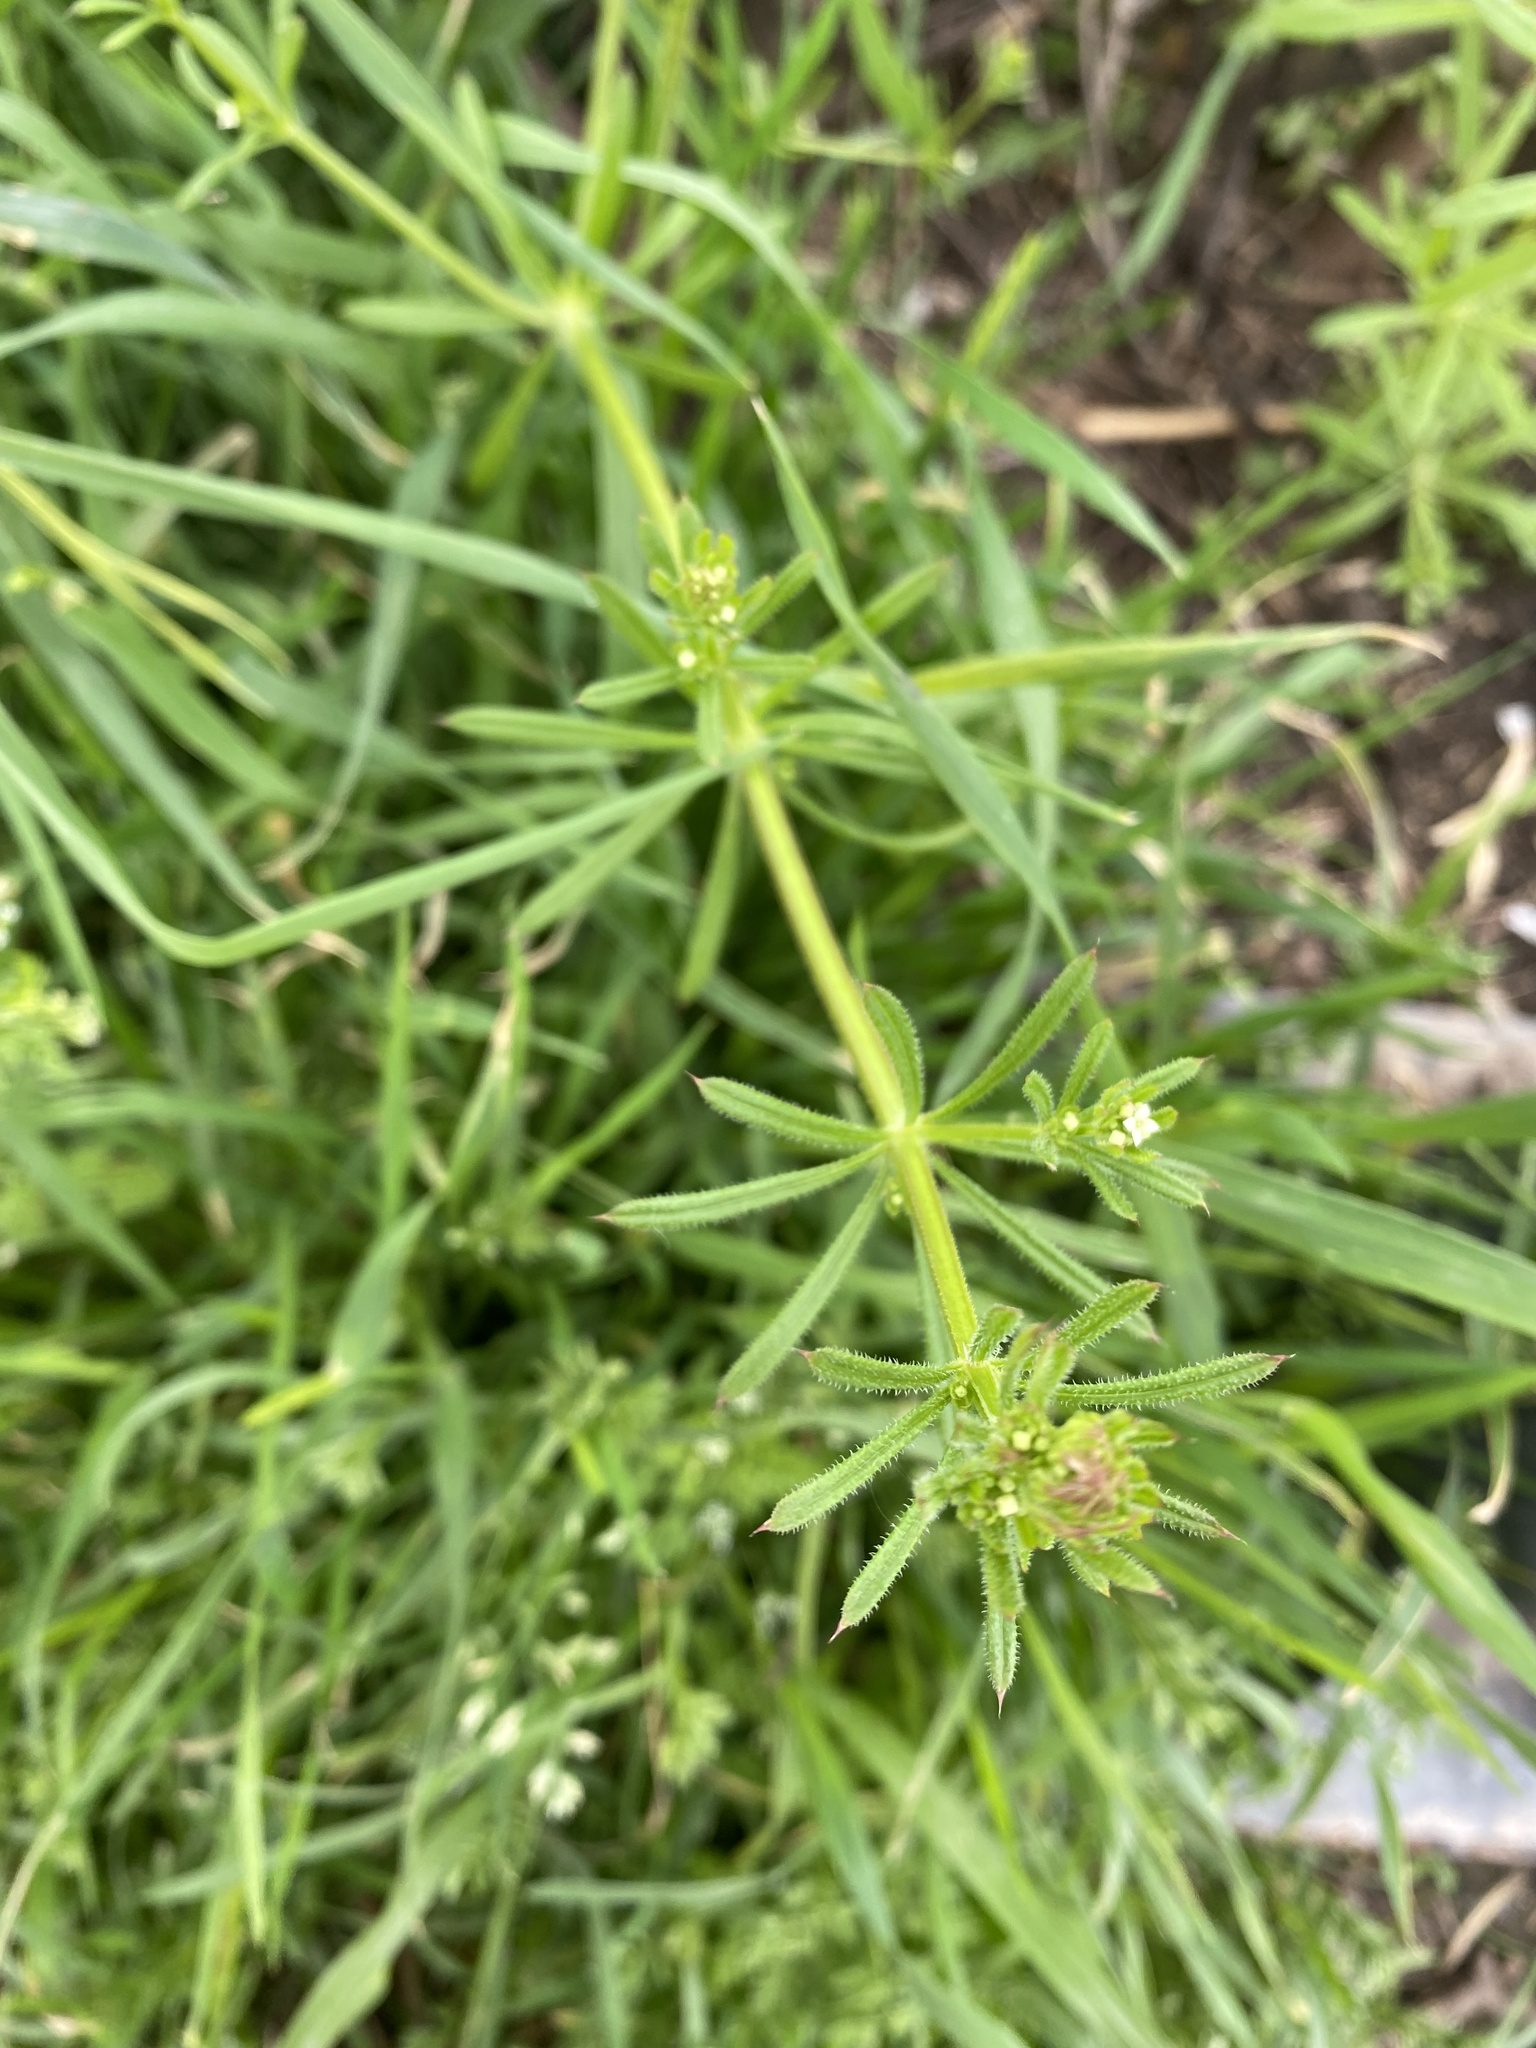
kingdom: Plantae
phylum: Tracheophyta
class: Magnoliopsida
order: Gentianales
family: Rubiaceae
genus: Galium
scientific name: Galium aparine
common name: Cleavers
